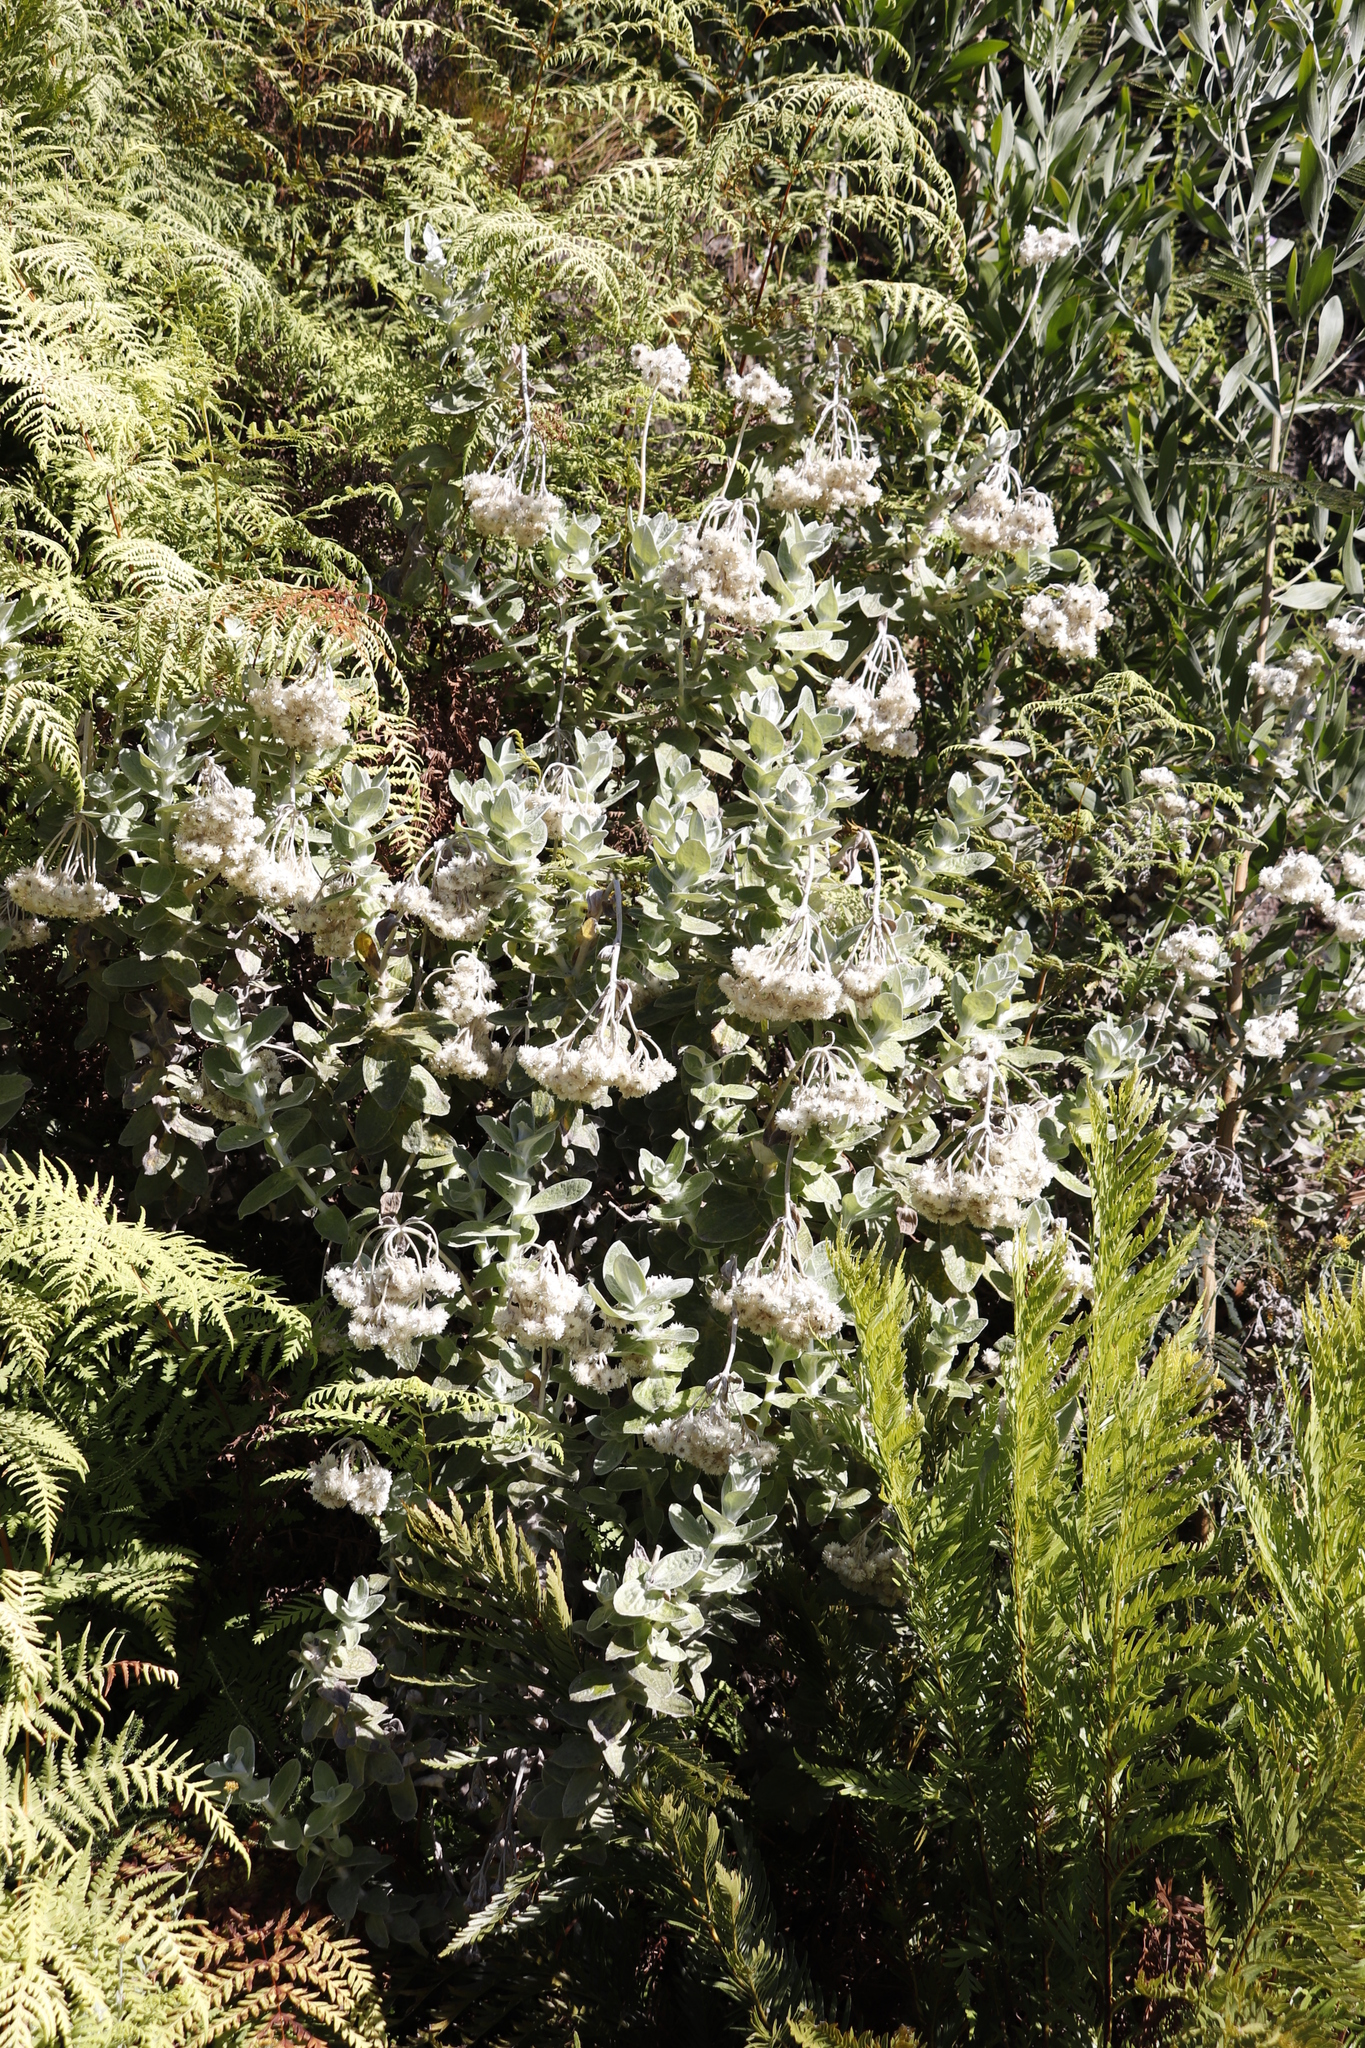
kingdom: Plantae
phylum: Tracheophyta
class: Magnoliopsida
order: Asterales
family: Asteraceae
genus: Helichrysum
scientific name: Helichrysum fruticans
